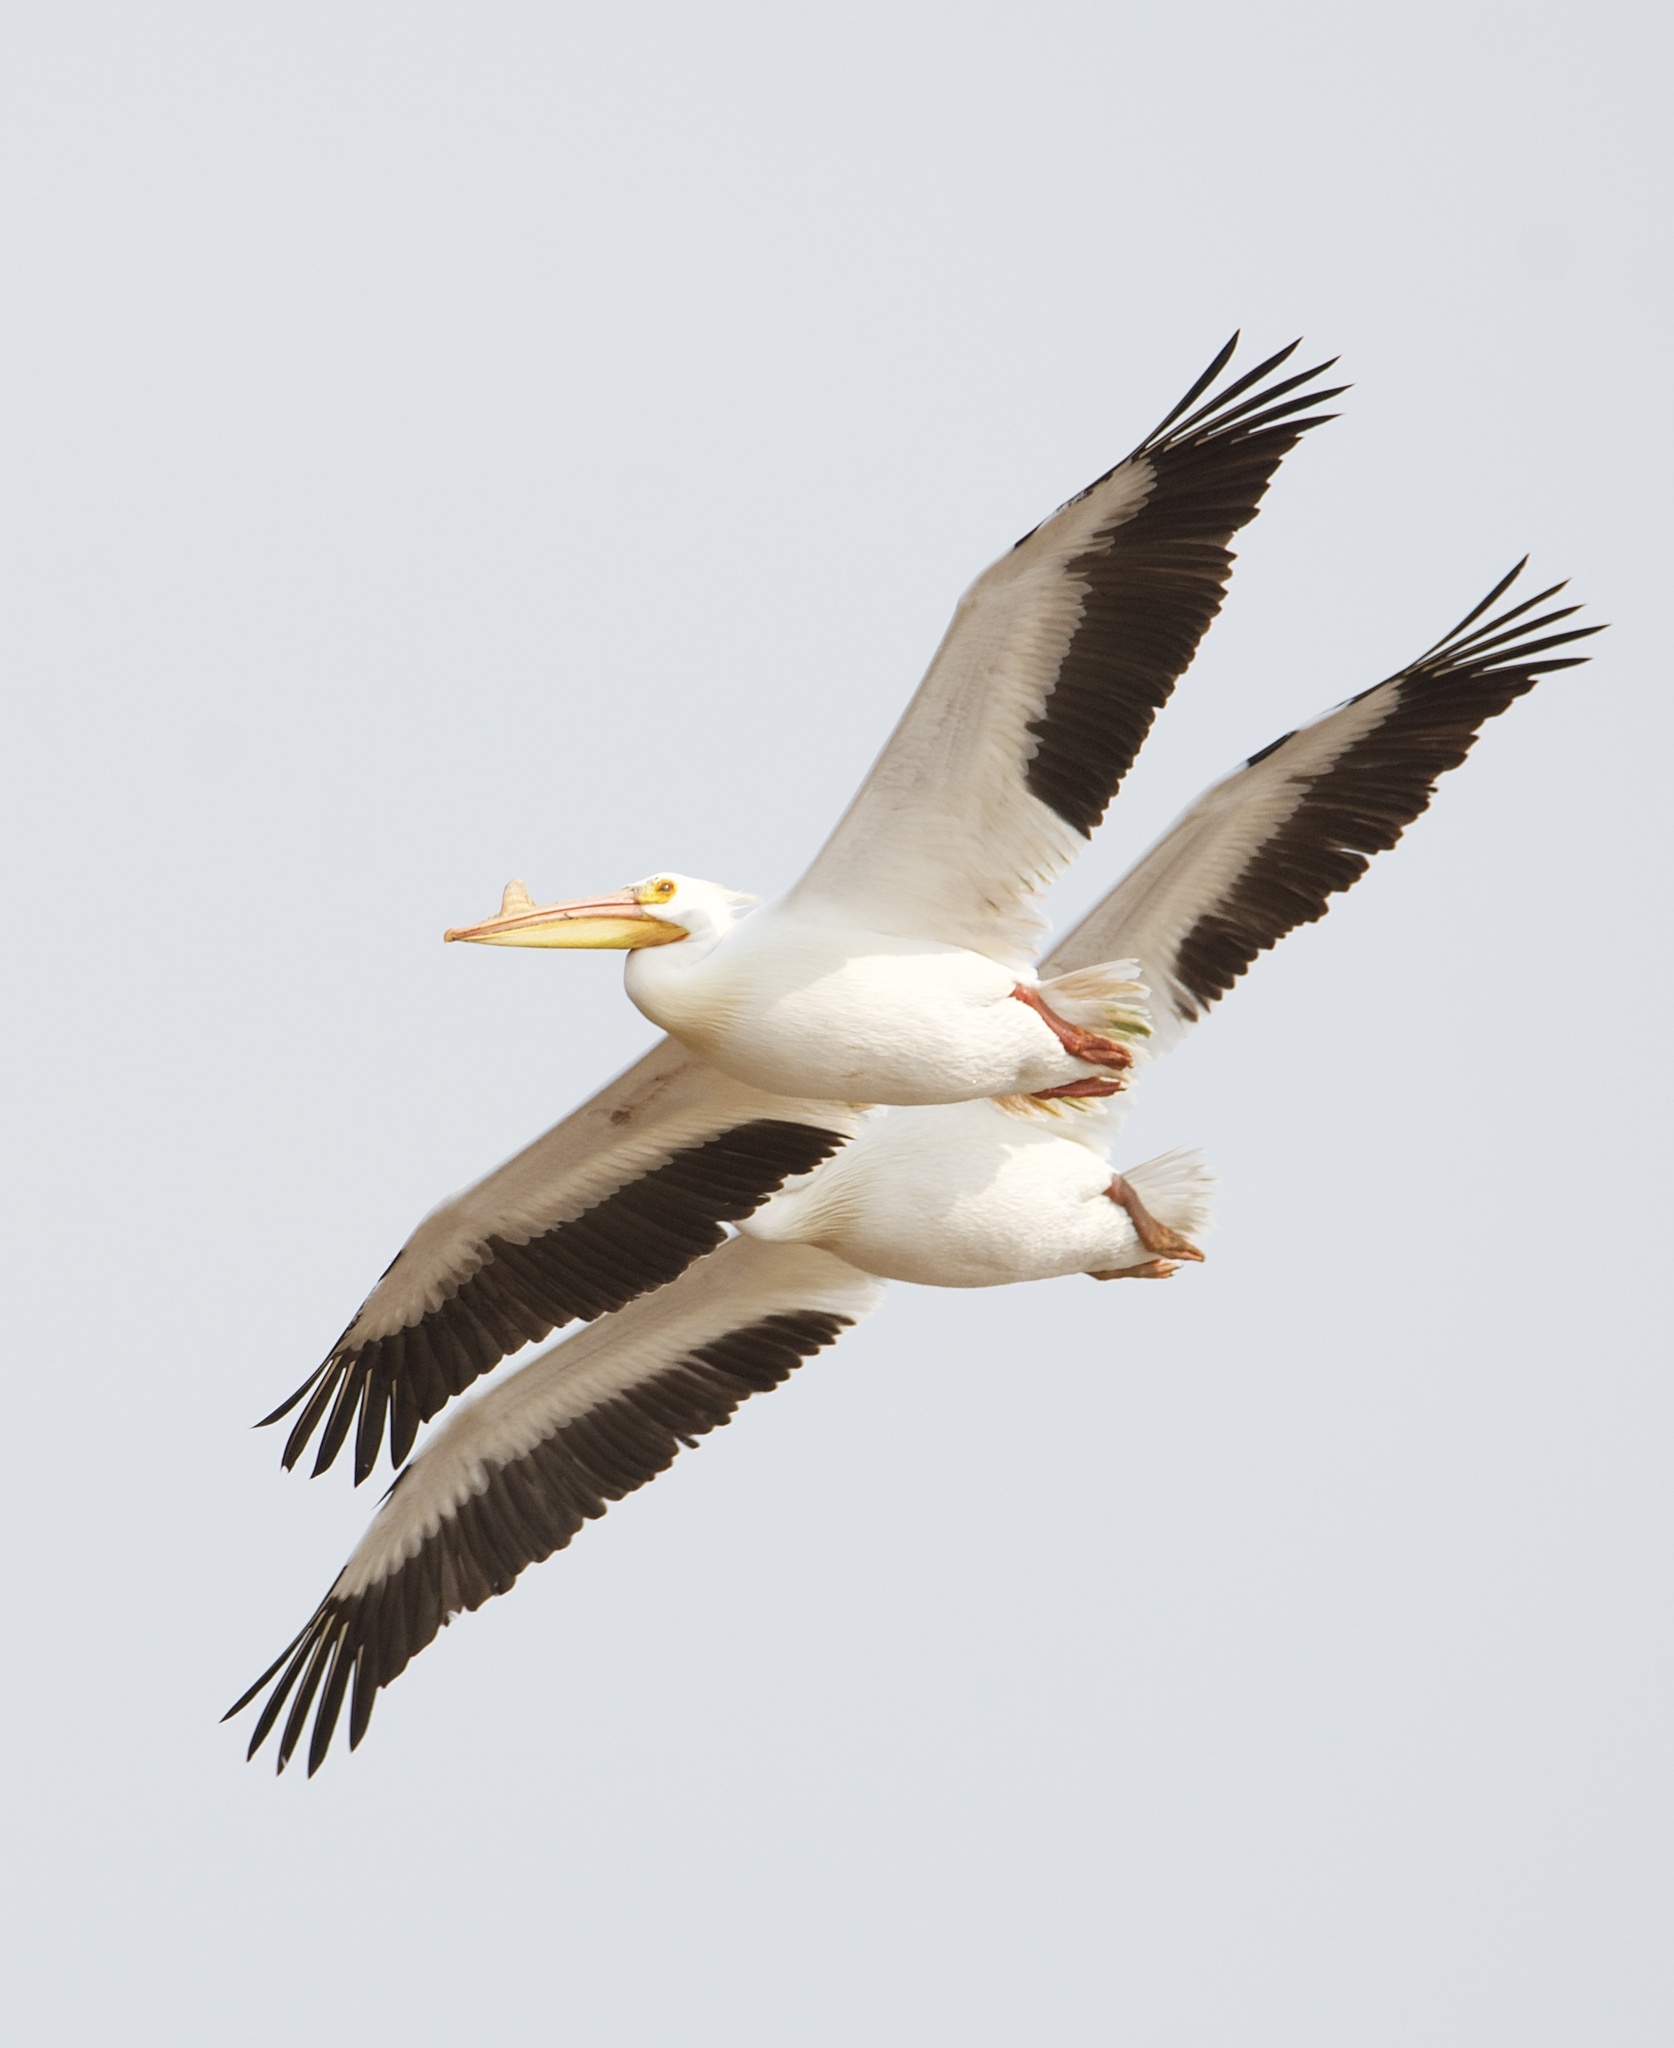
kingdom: Animalia
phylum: Chordata
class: Aves
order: Pelecaniformes
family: Pelecanidae
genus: Pelecanus
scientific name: Pelecanus erythrorhynchos
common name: American white pelican
